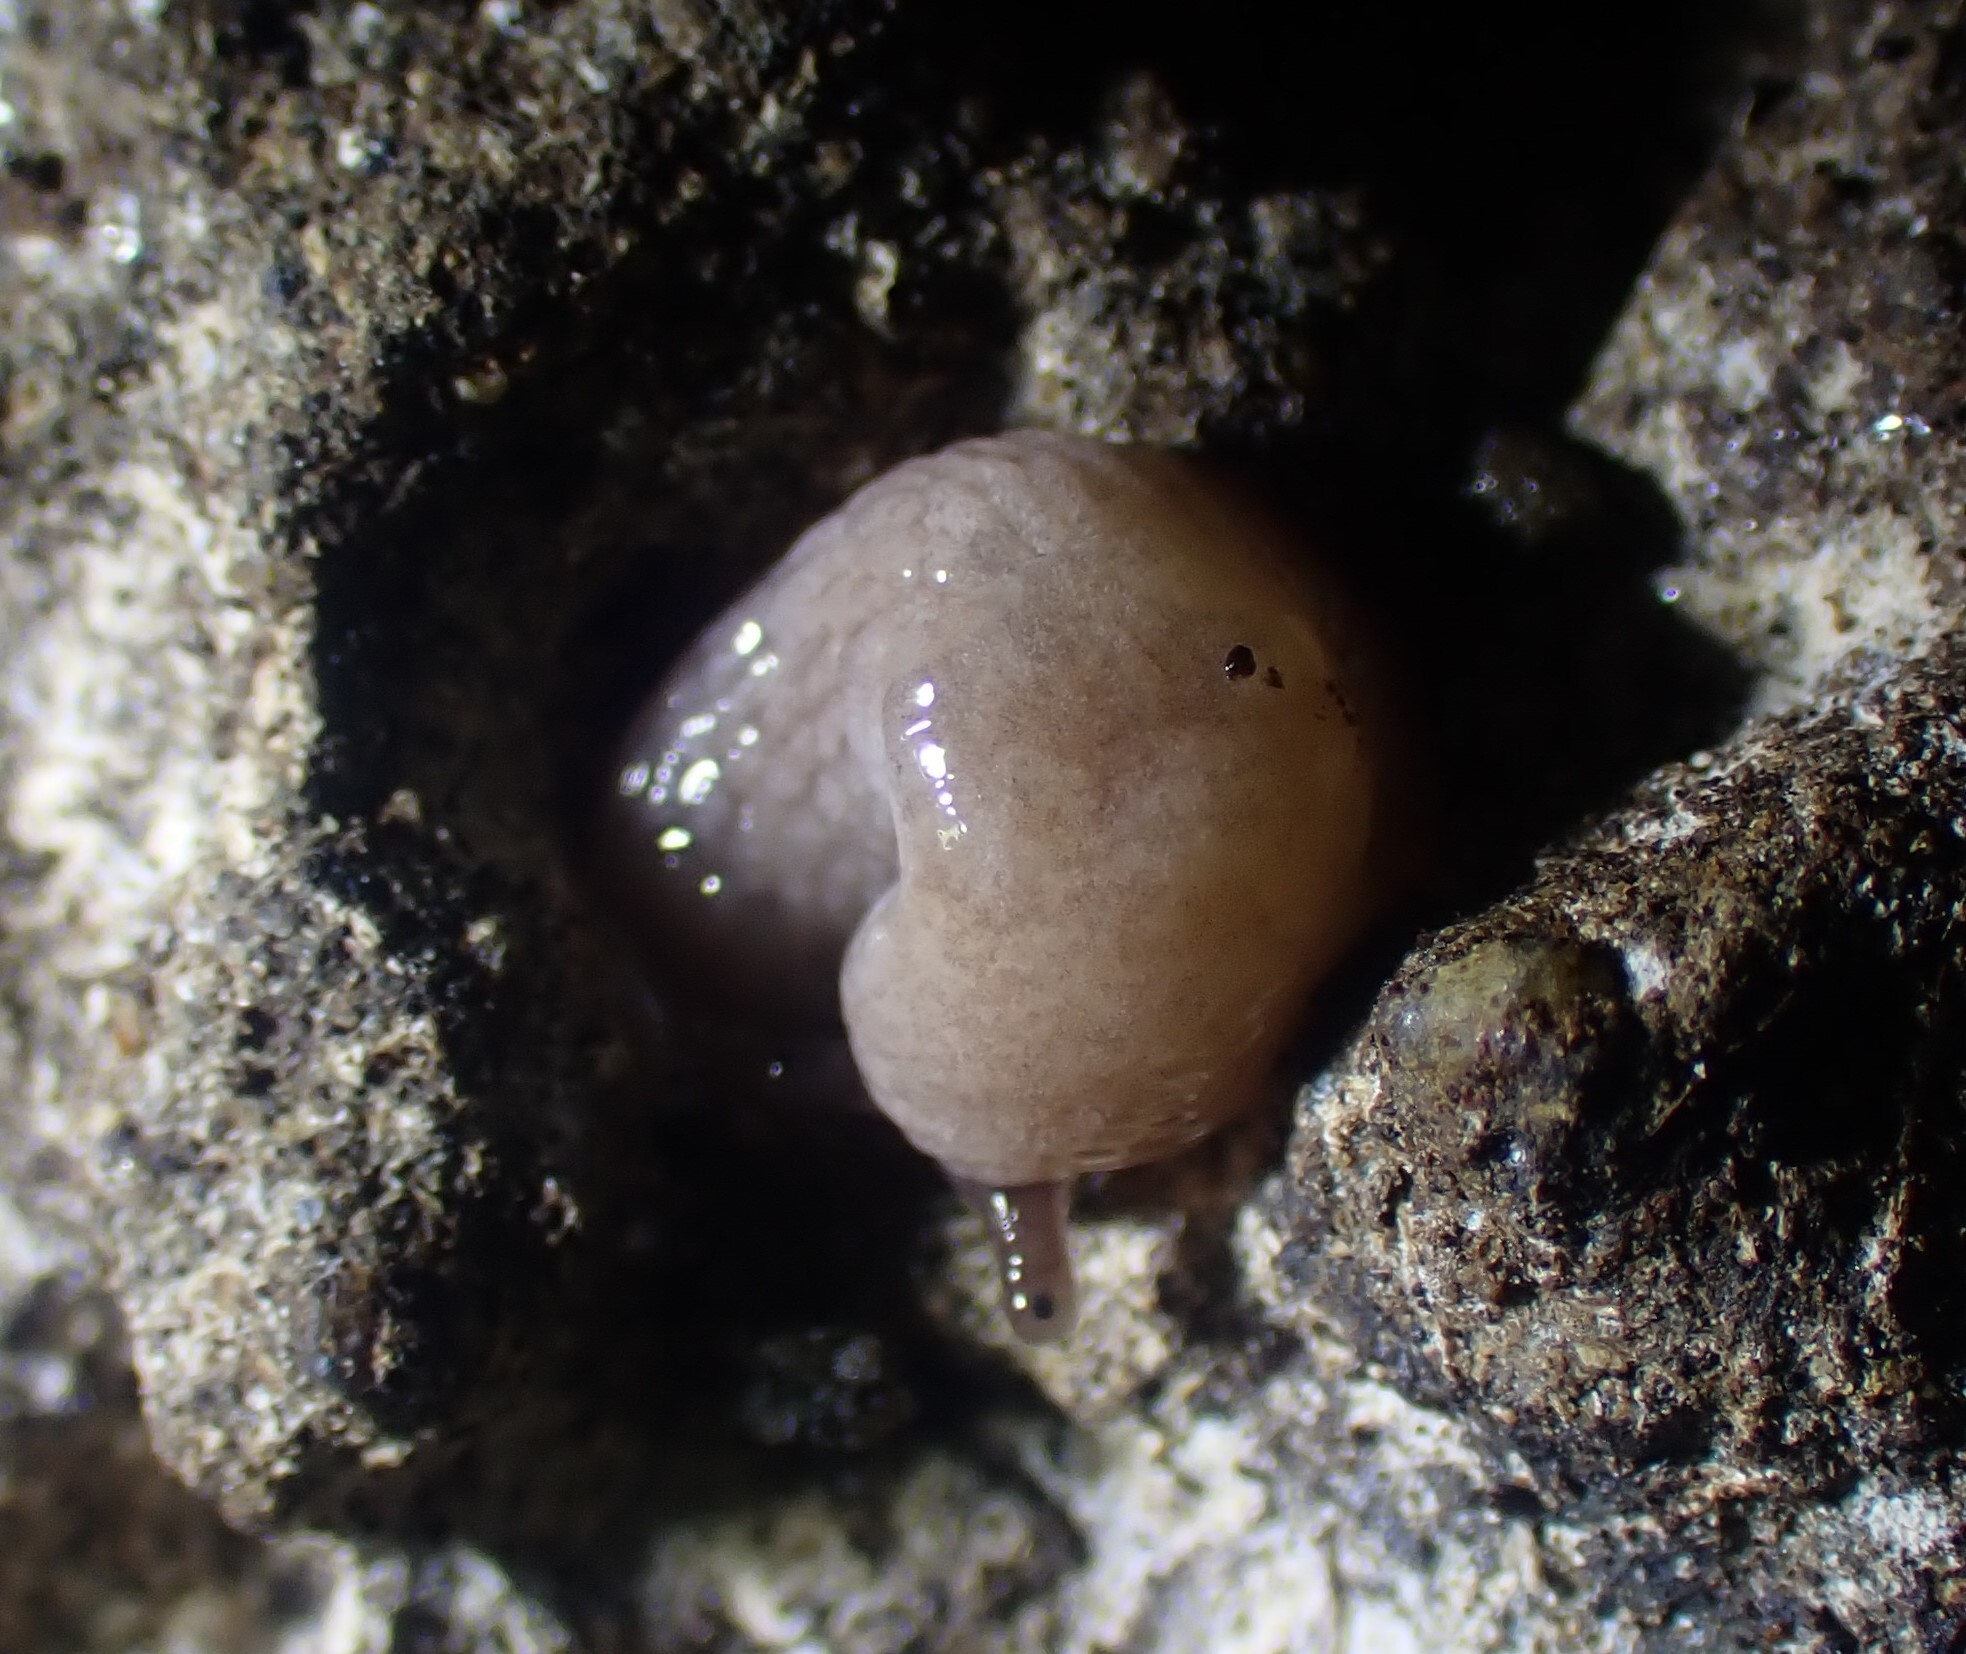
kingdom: Animalia
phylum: Mollusca
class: Gastropoda
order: Stylommatophora
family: Agriolimacidae
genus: Deroceras
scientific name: Deroceras reticulatum
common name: Gray field slug
